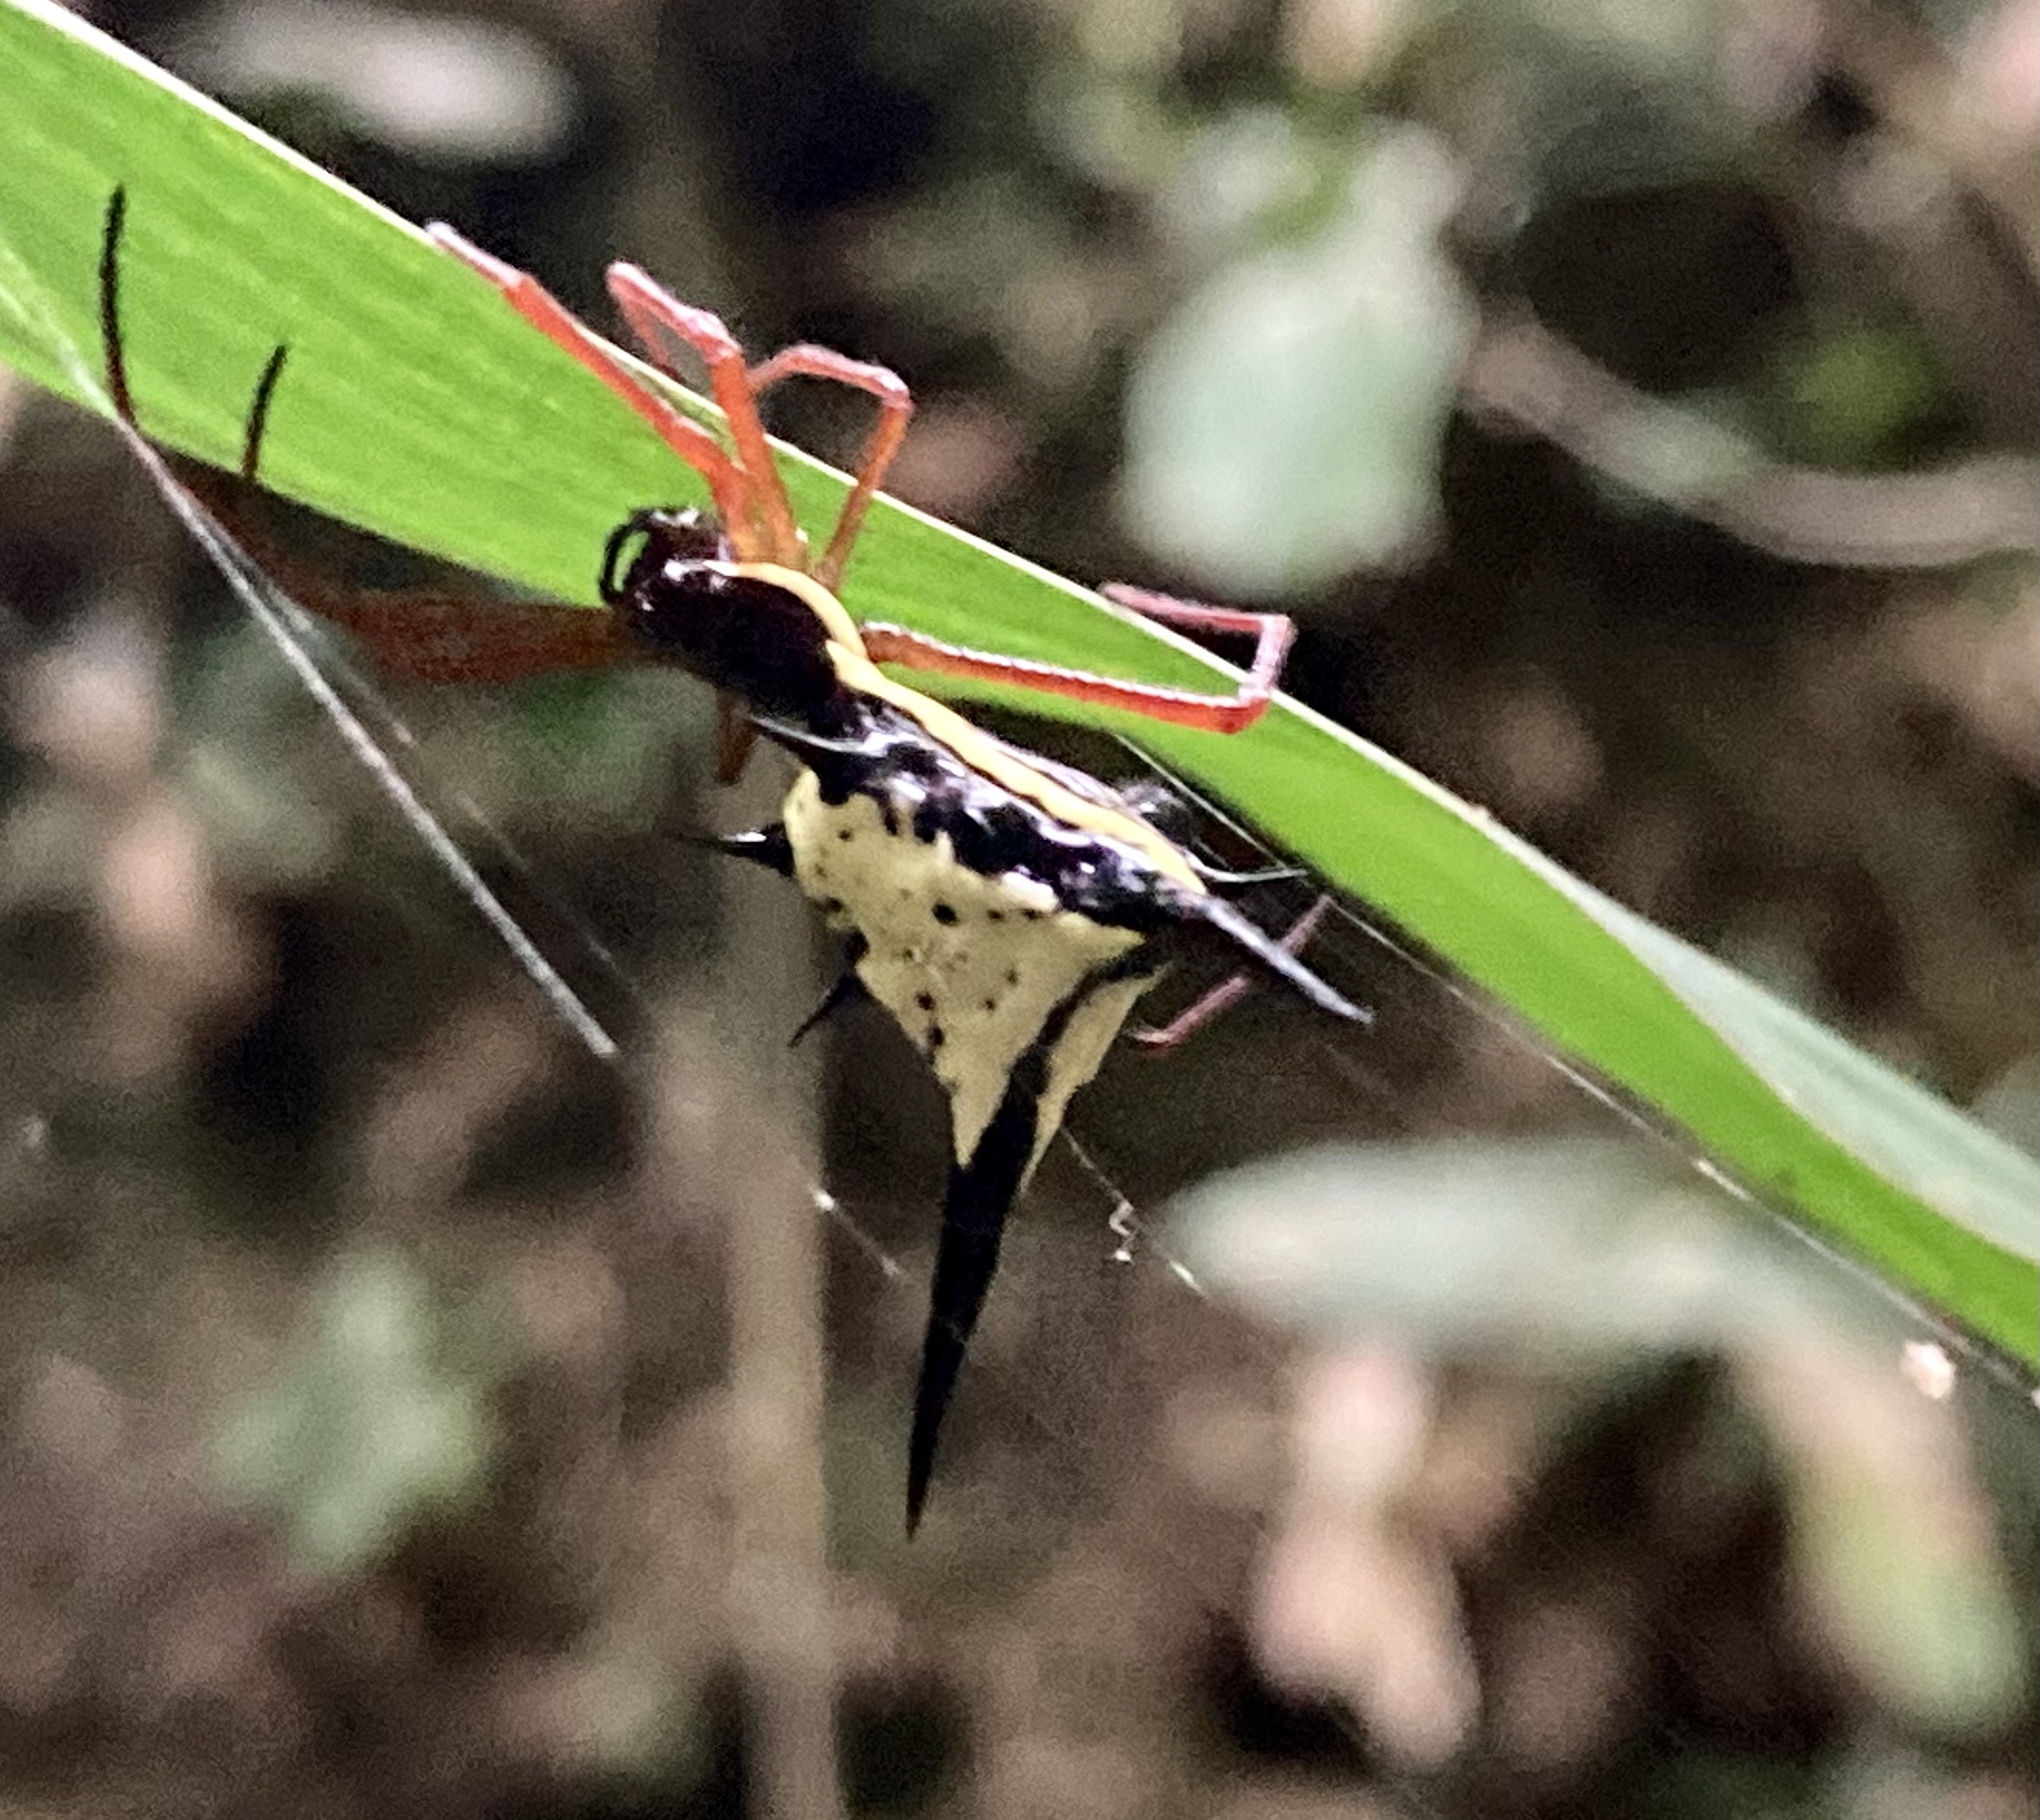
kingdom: Animalia
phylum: Arthropoda
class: Arachnida
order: Araneae
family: Araneidae
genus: Micrathena
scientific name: Micrathena schreibersi
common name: Orb weavers
